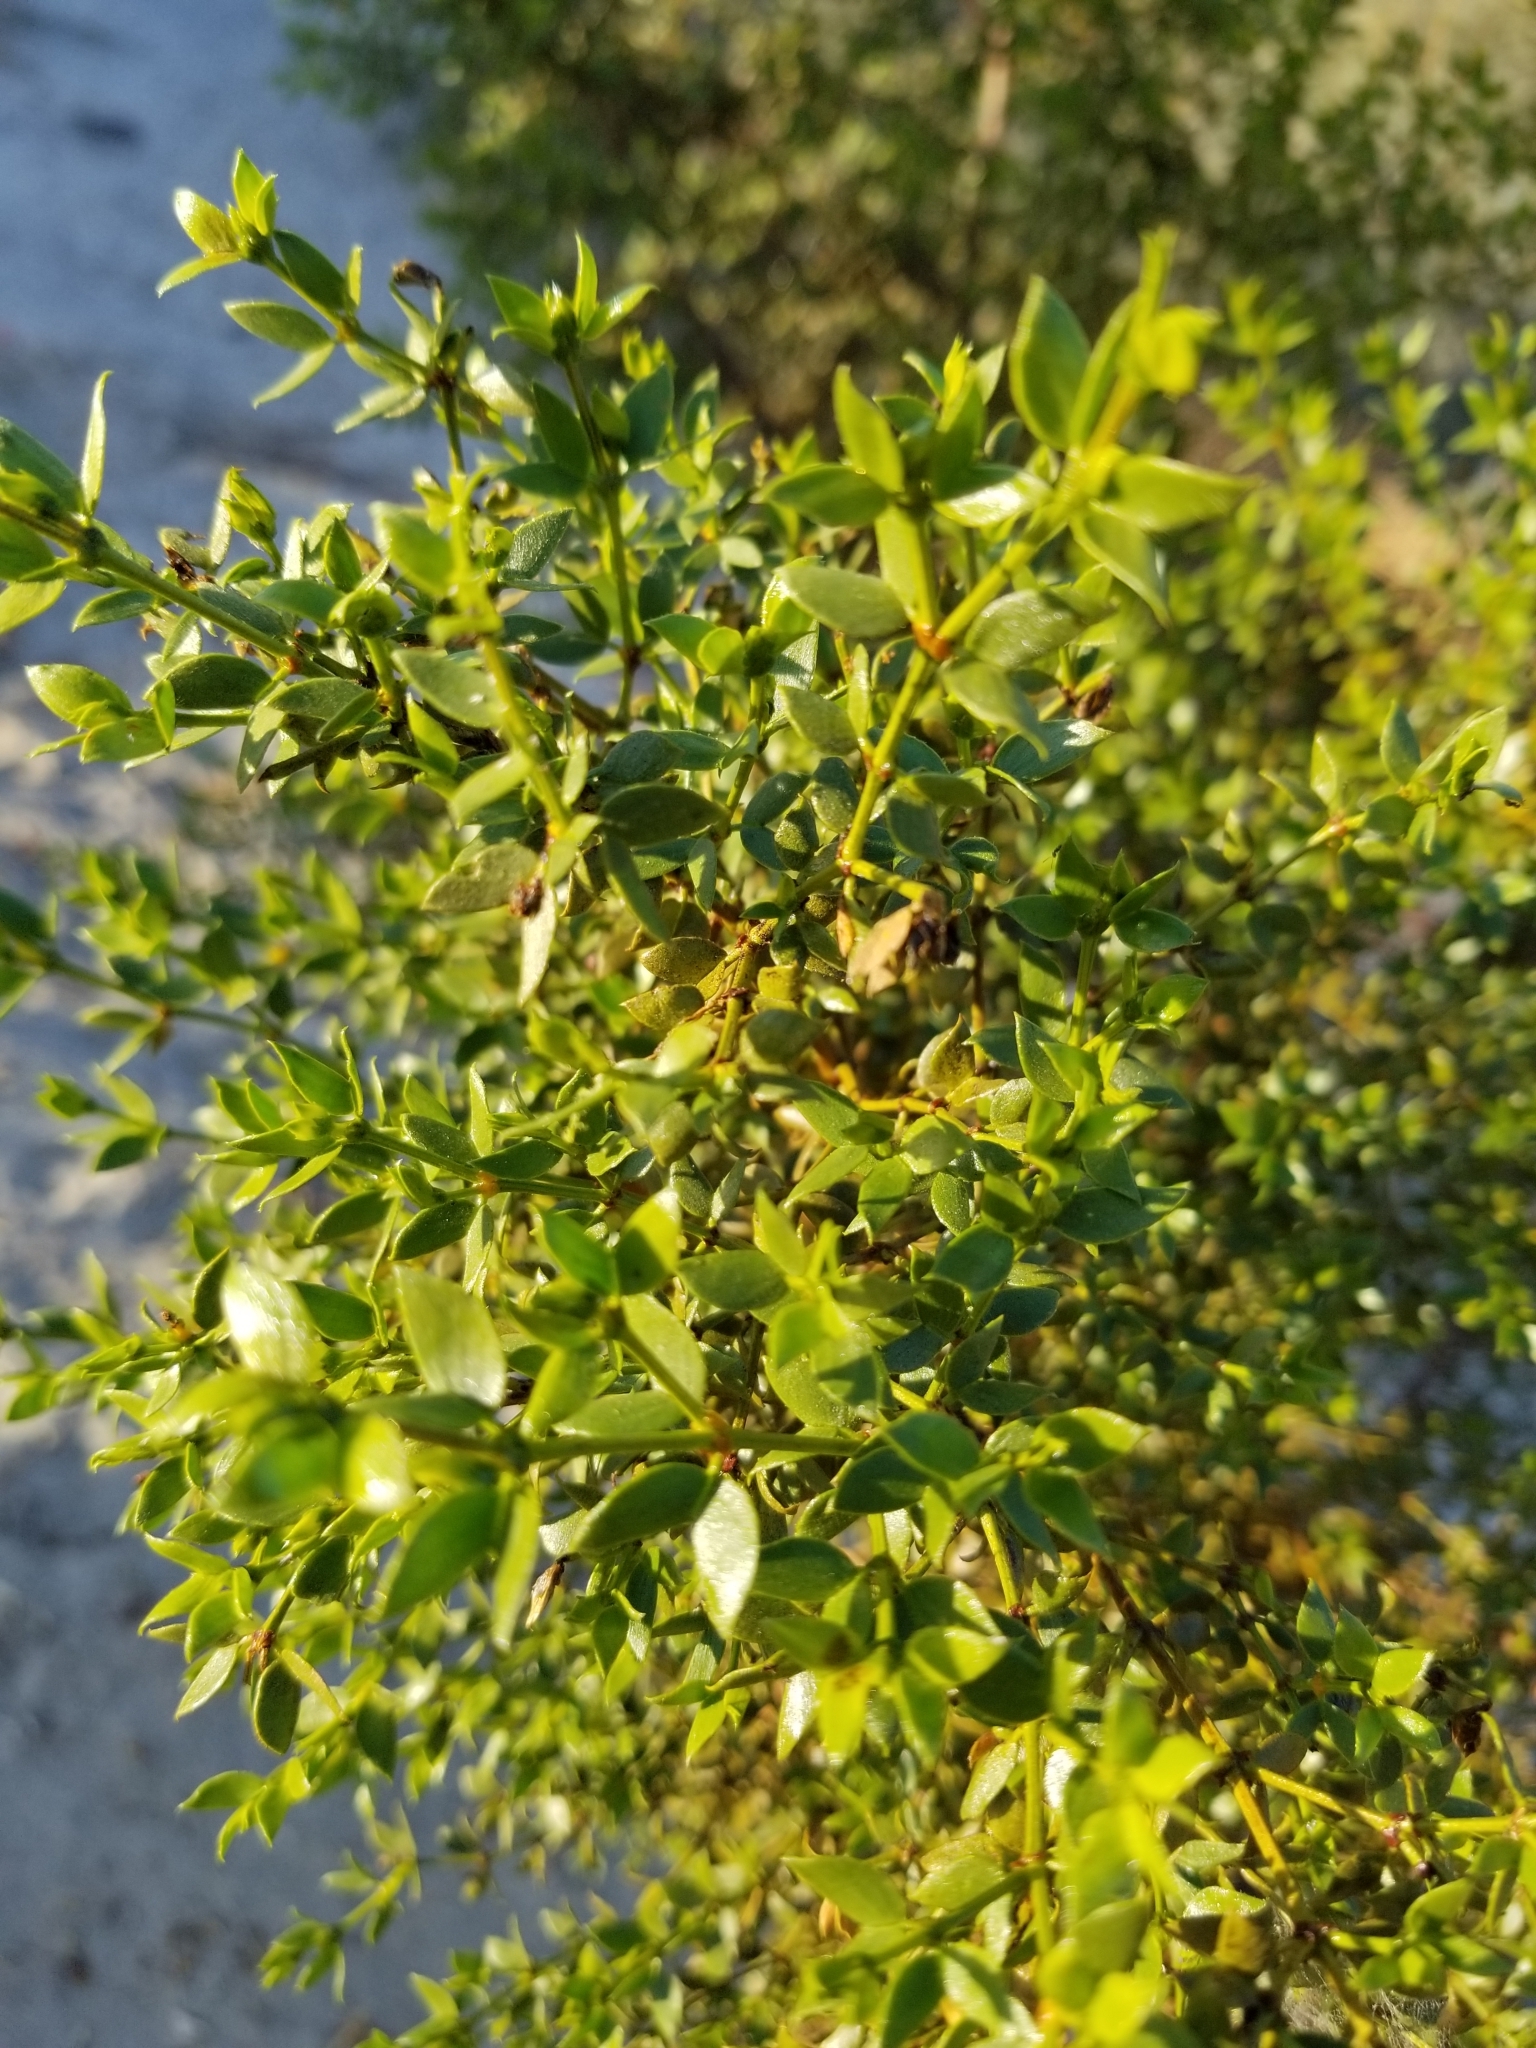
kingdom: Plantae
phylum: Tracheophyta
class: Magnoliopsida
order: Zygophyllales
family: Zygophyllaceae
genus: Larrea
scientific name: Larrea tridentata
